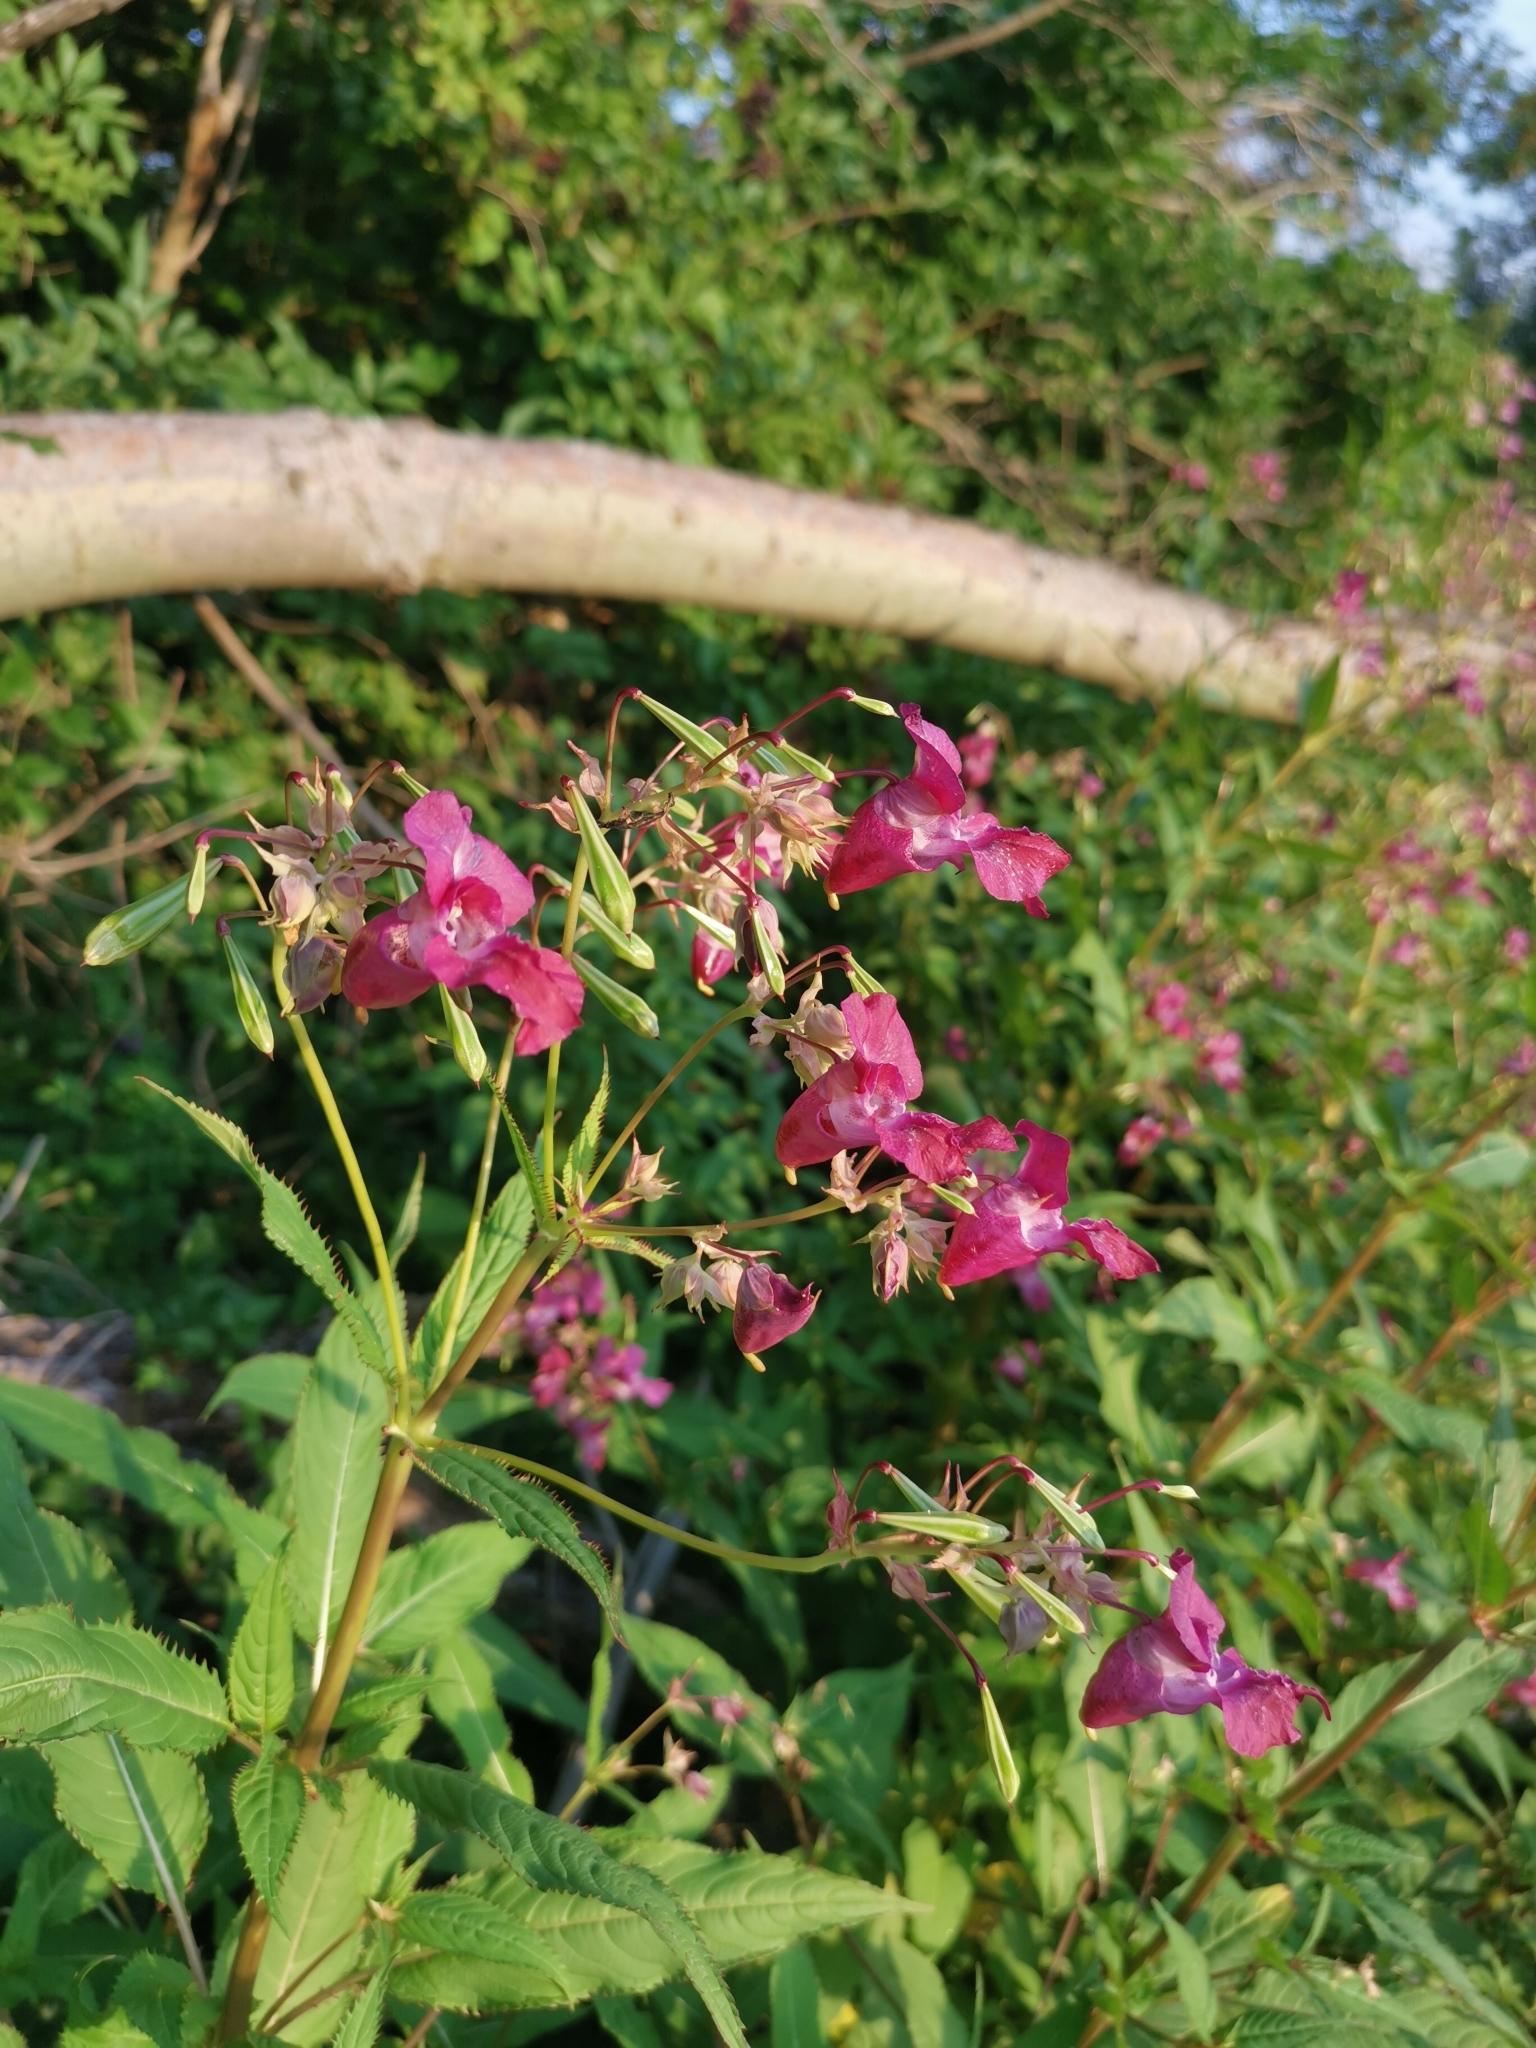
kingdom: Plantae
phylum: Tracheophyta
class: Magnoliopsida
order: Ericales
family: Balsaminaceae
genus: Impatiens
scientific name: Impatiens glandulifera
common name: Himalayan balsam
